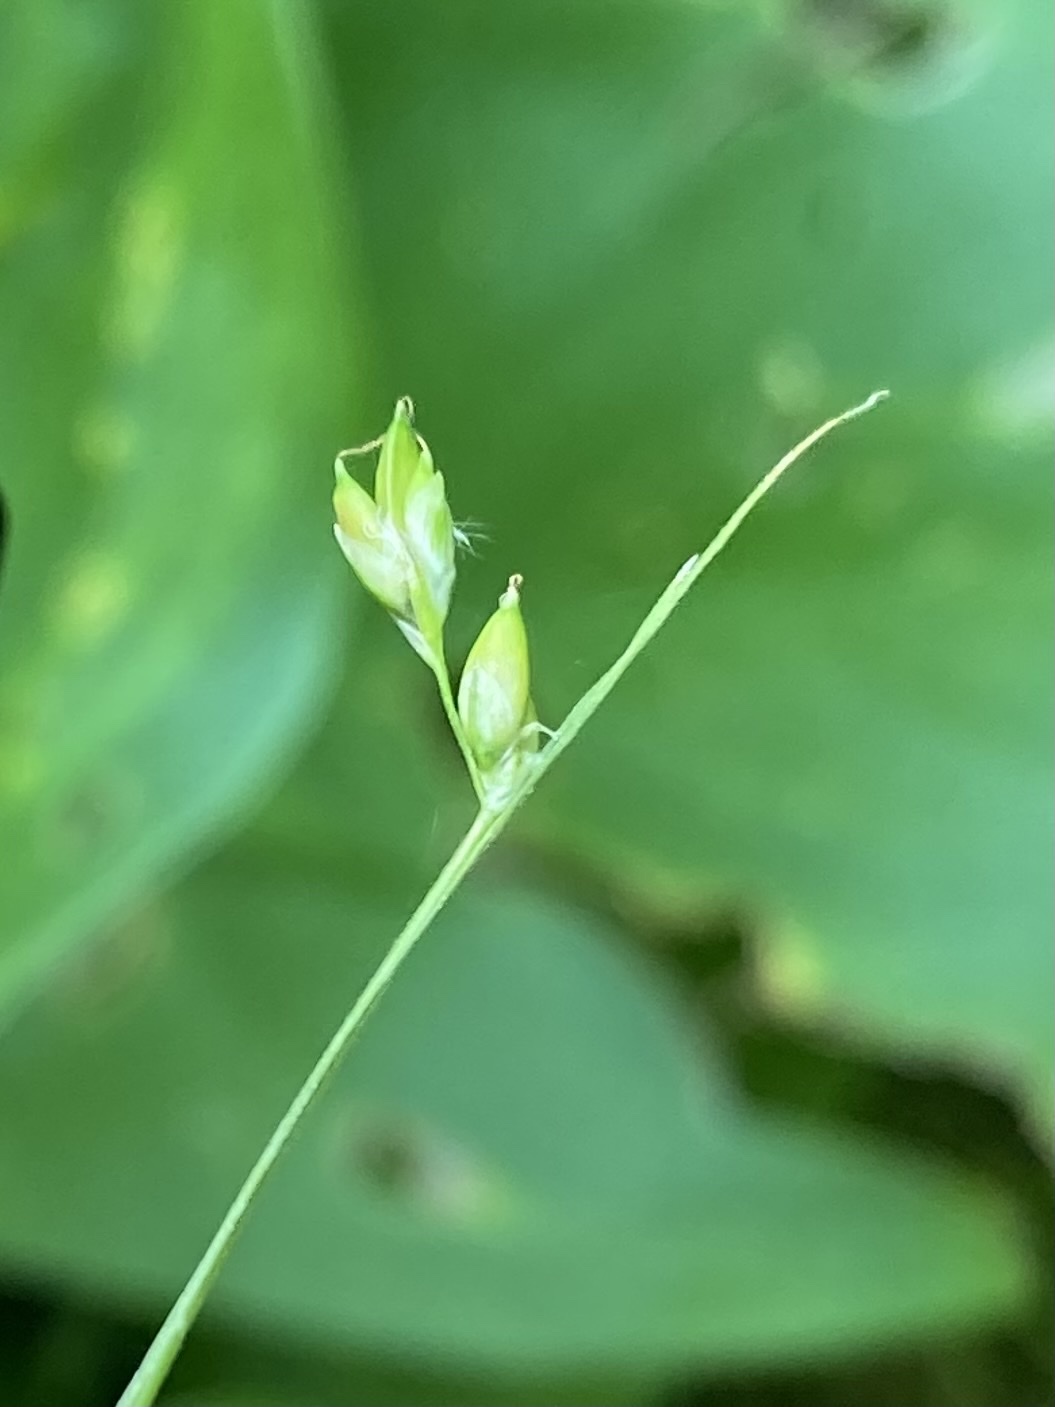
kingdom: Plantae
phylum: Tracheophyta
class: Liliopsida
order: Poales
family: Cyperaceae
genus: Carex
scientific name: Carex trisperma
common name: Three-seeded sedge
